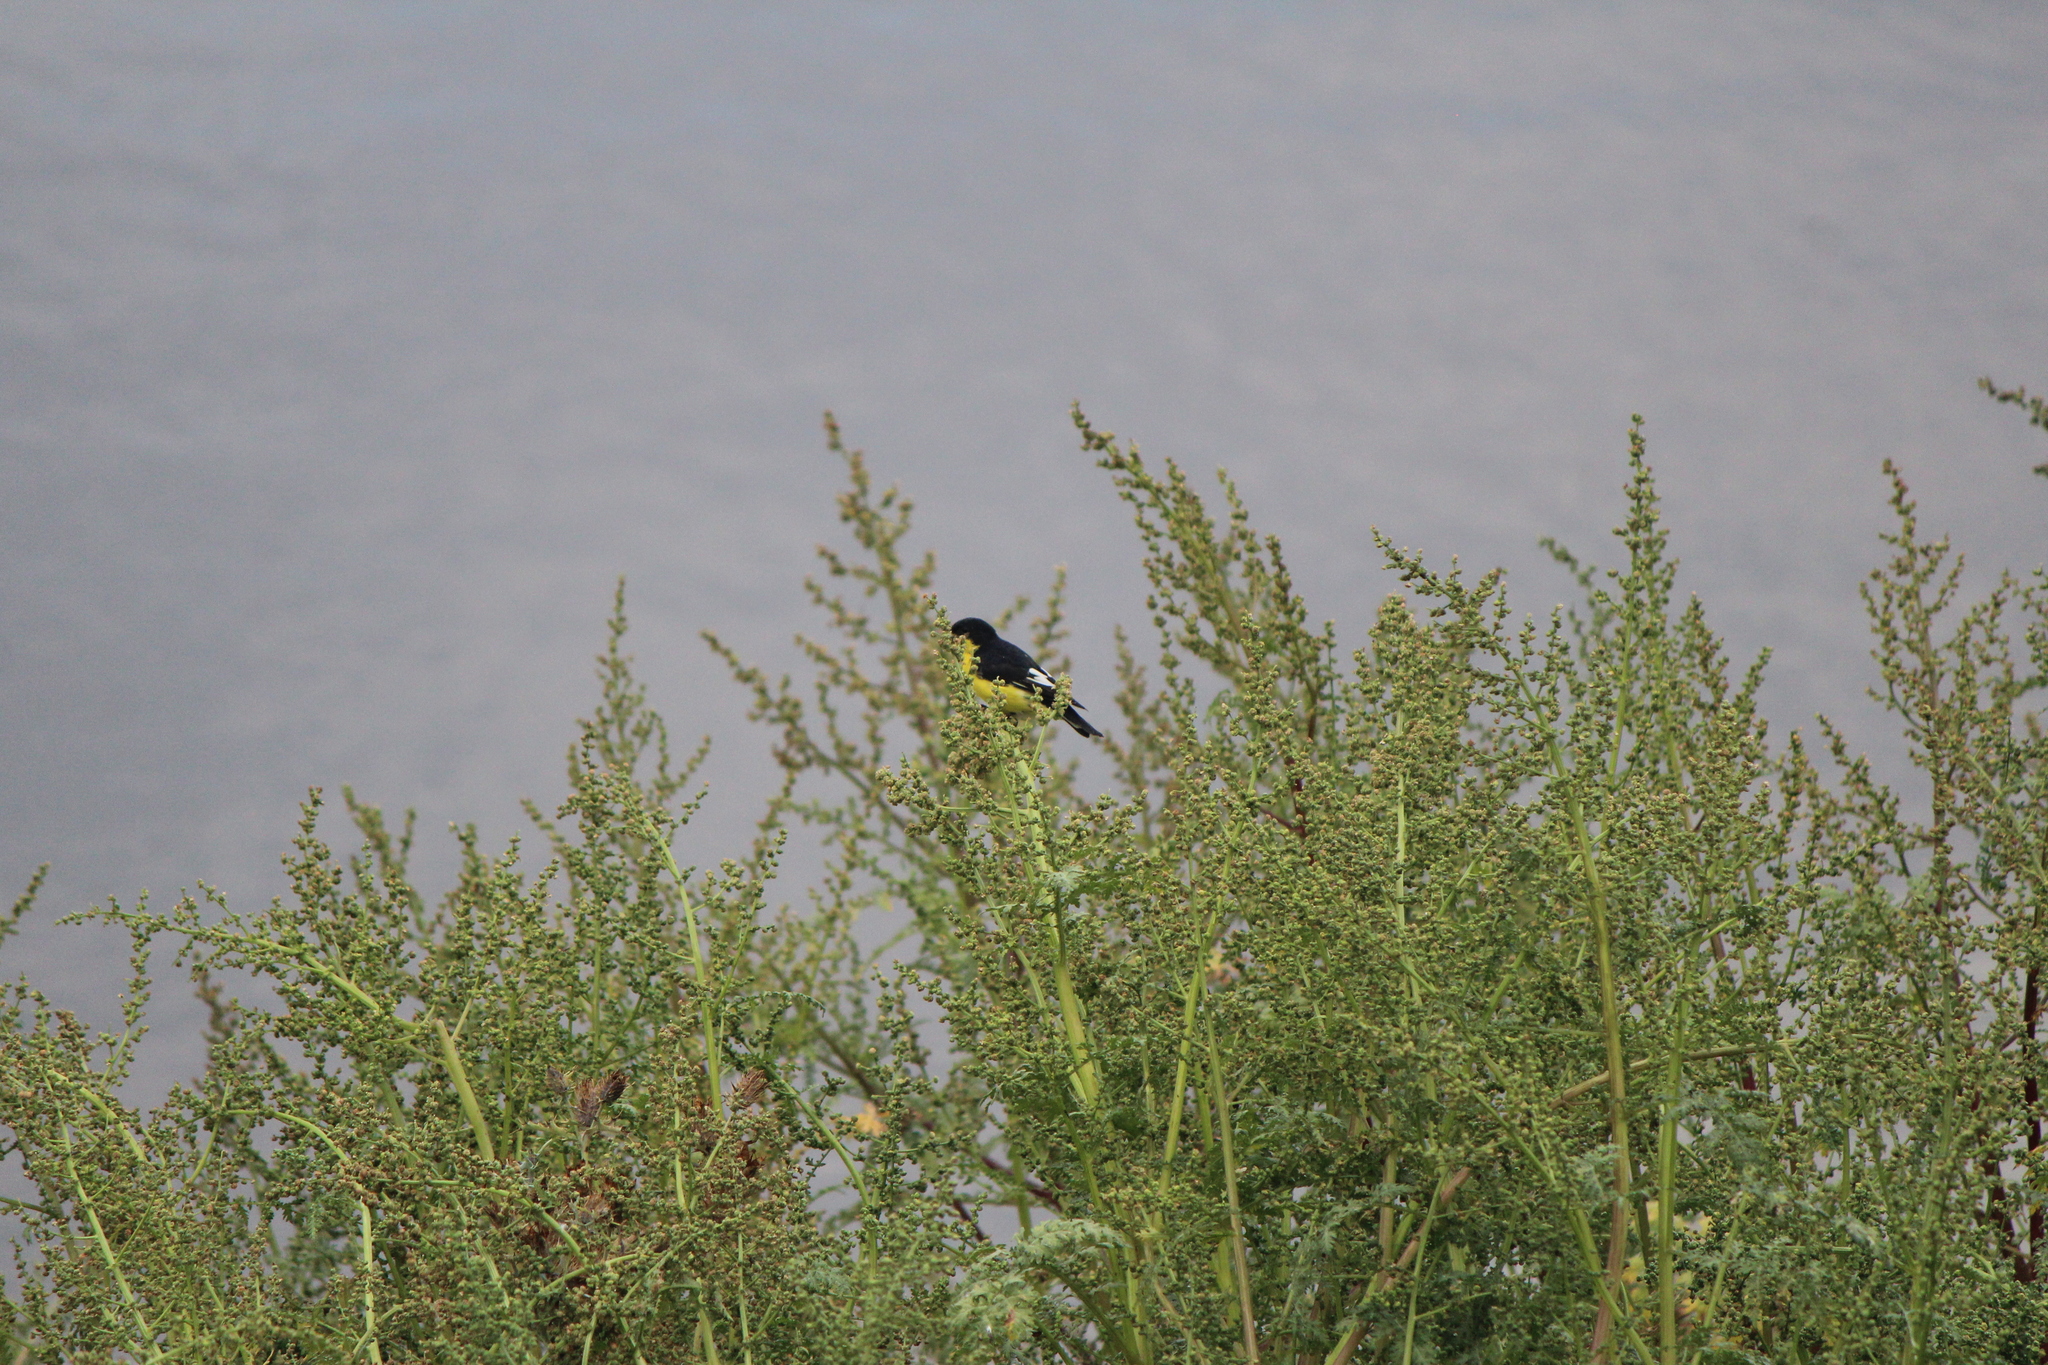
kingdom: Animalia
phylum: Chordata
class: Aves
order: Passeriformes
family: Fringillidae
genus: Spinus
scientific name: Spinus psaltria
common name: Lesser goldfinch
